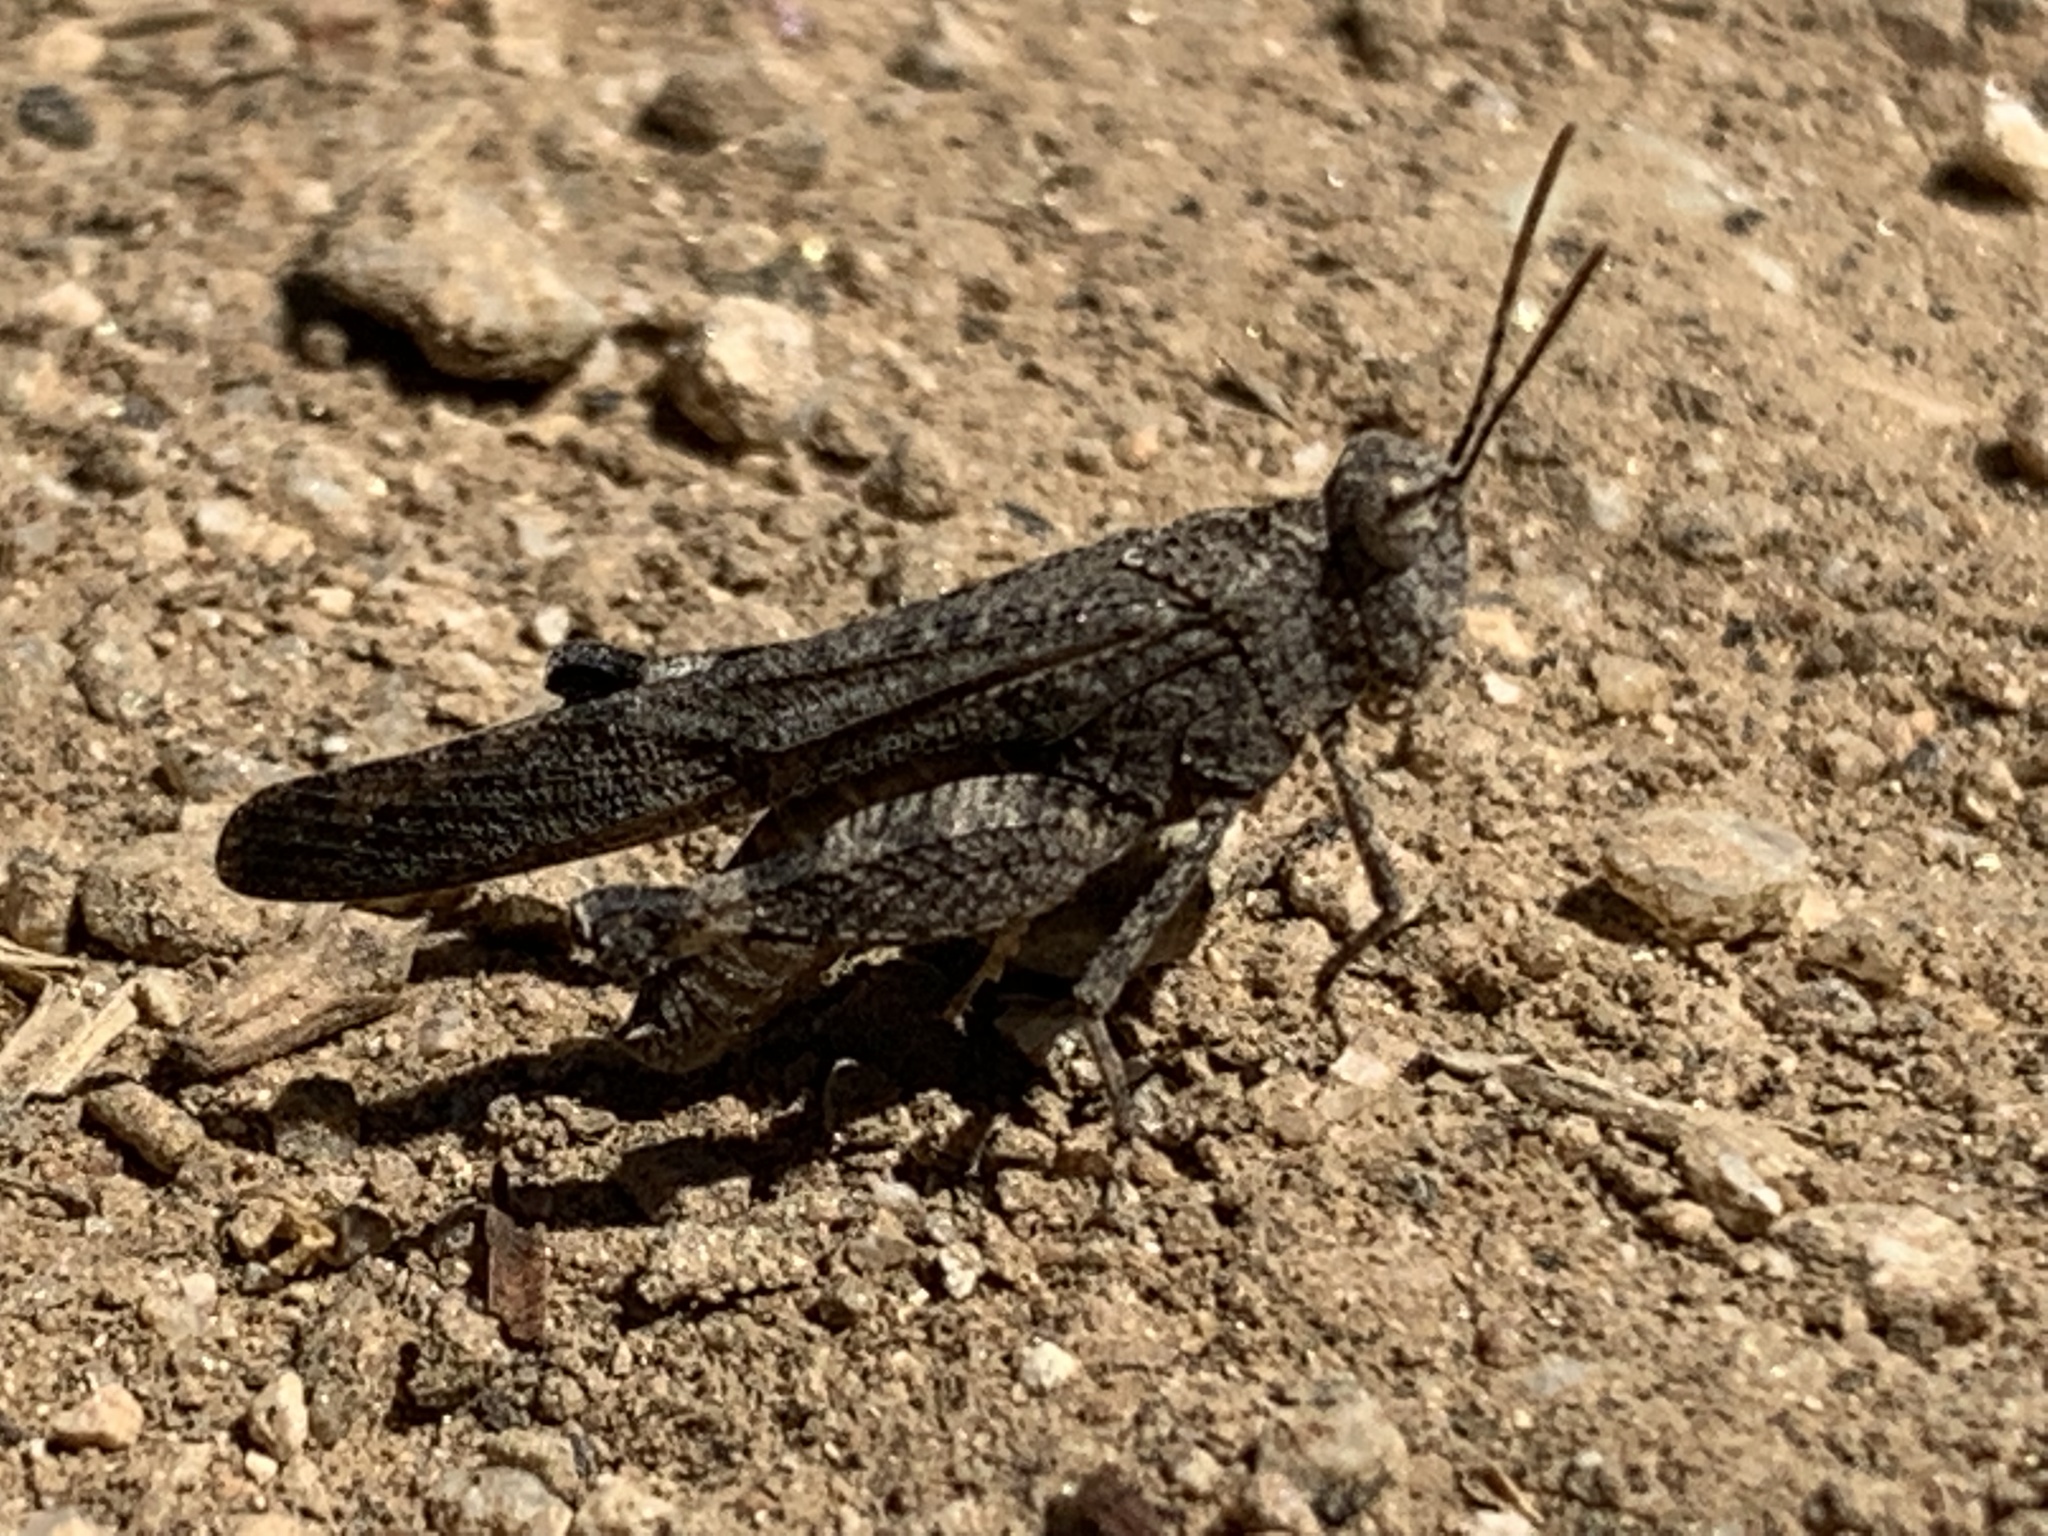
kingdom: Animalia
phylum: Arthropoda
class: Insecta
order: Orthoptera
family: Acrididae
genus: Lactista
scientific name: Lactista gibbosus
